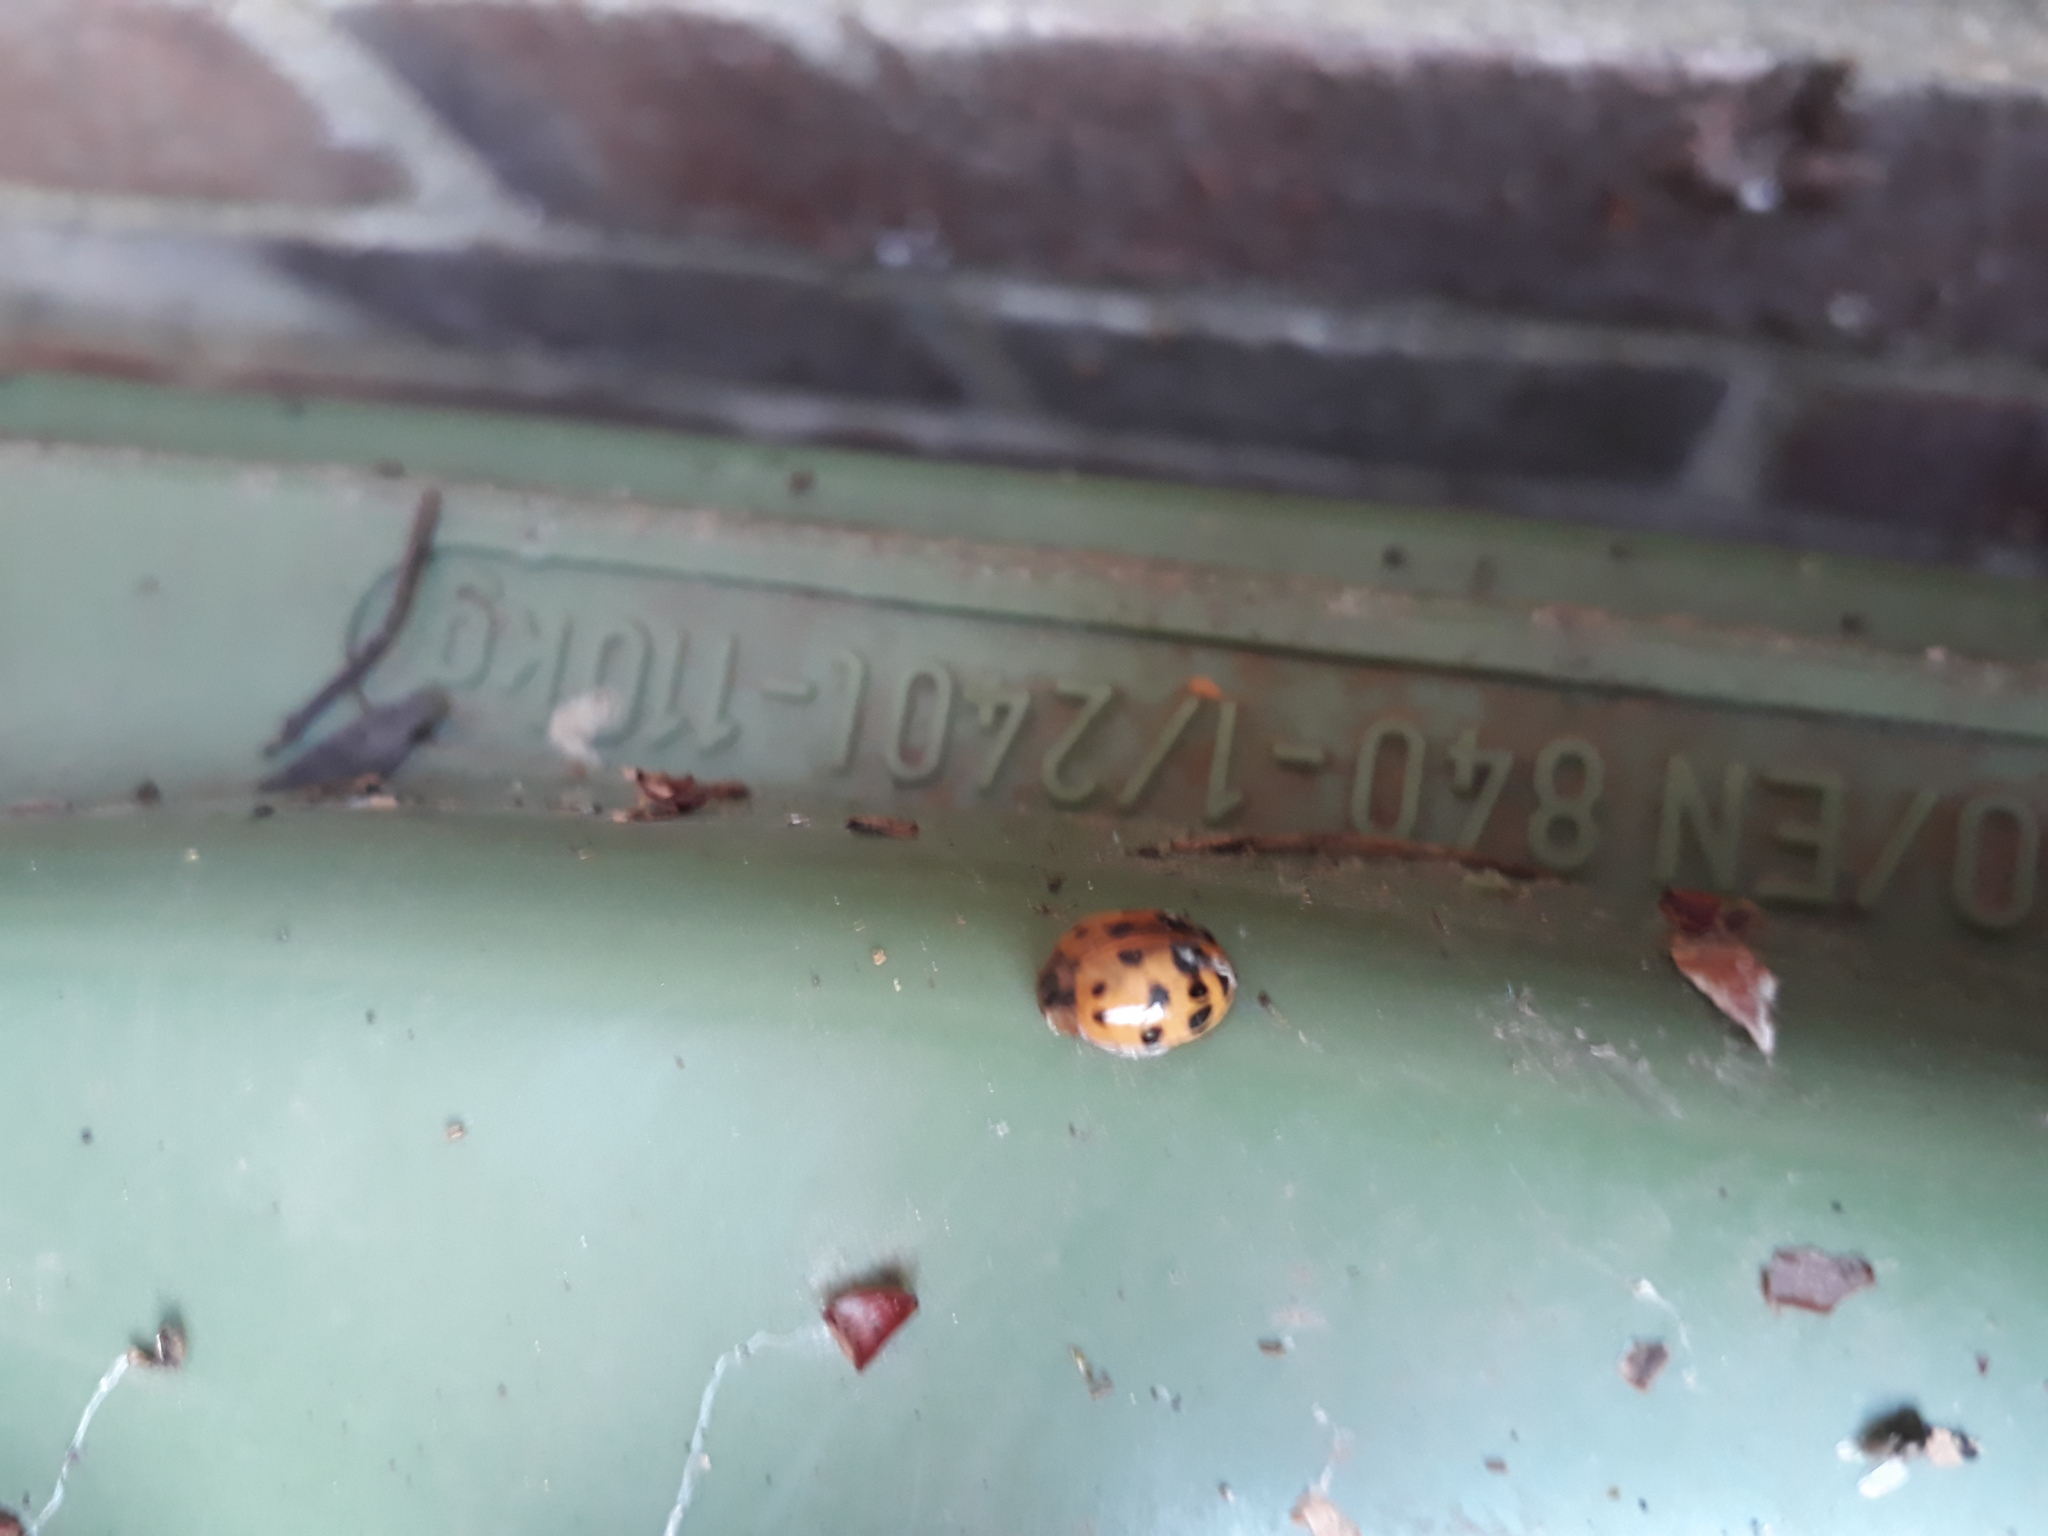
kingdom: Animalia
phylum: Arthropoda
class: Insecta
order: Coleoptera
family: Coccinellidae
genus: Harmonia
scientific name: Harmonia axyridis
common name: Harlequin ladybird
